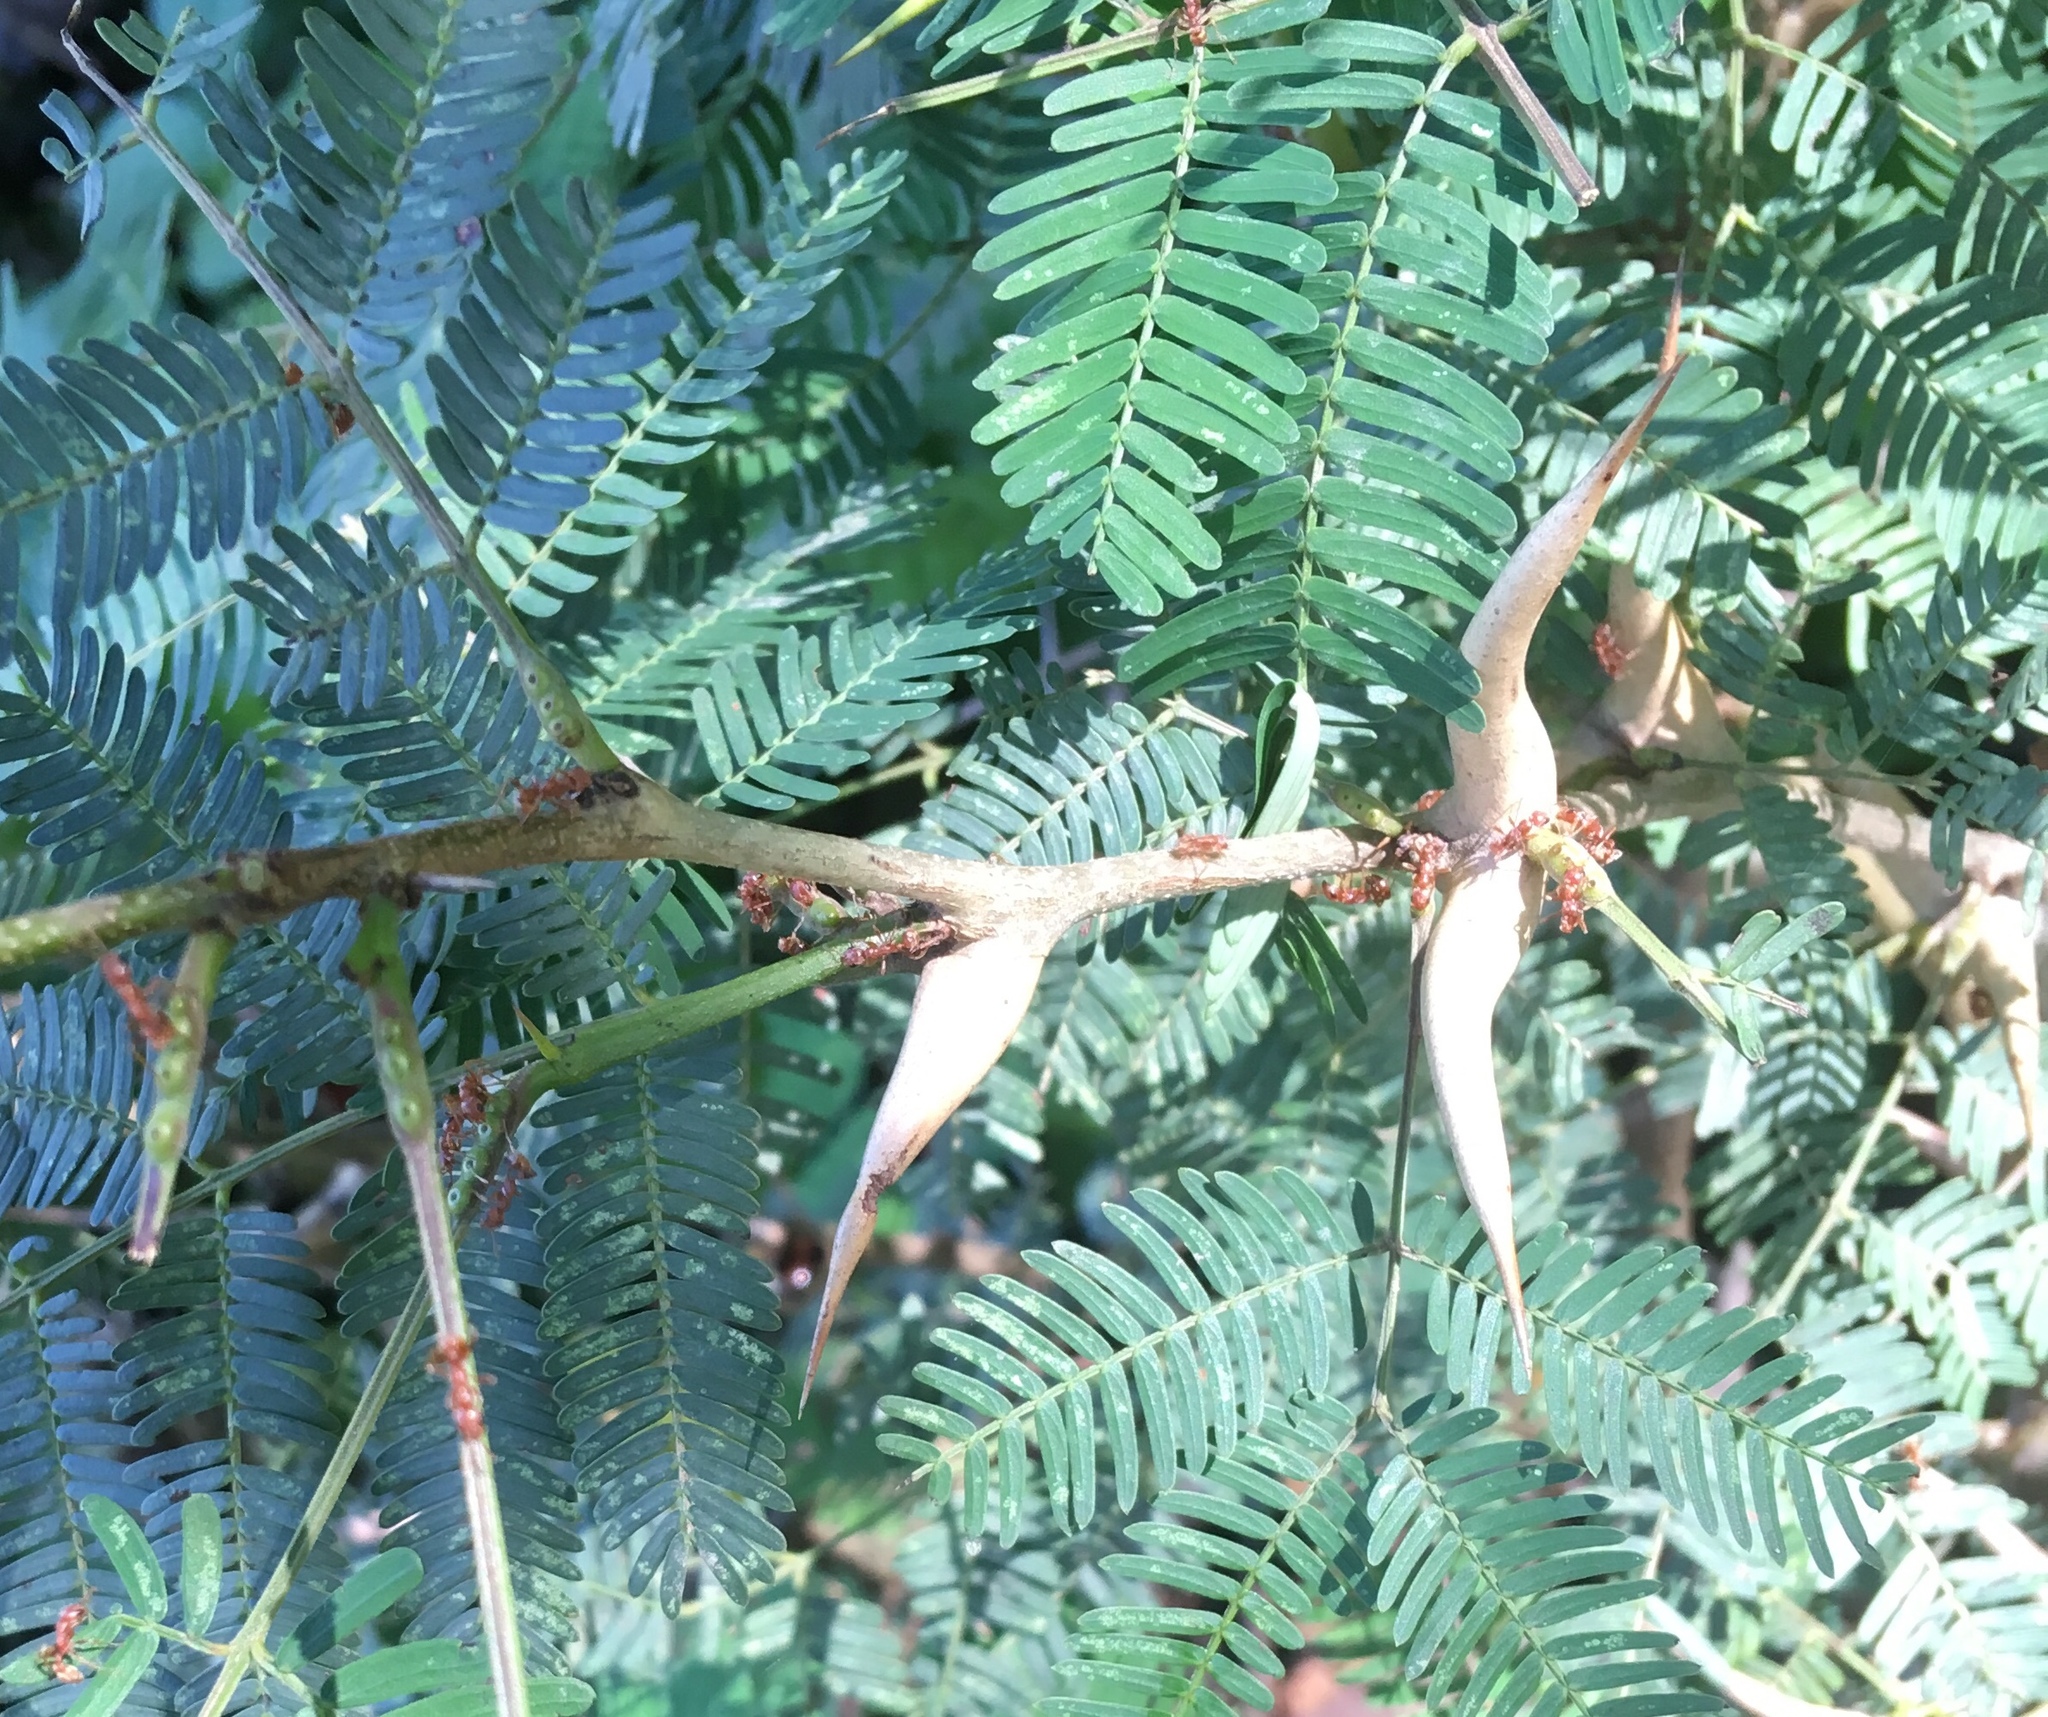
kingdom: Plantae
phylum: Tracheophyta
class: Magnoliopsida
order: Fabales
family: Fabaceae
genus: Vachellia
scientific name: Vachellia collinsii
